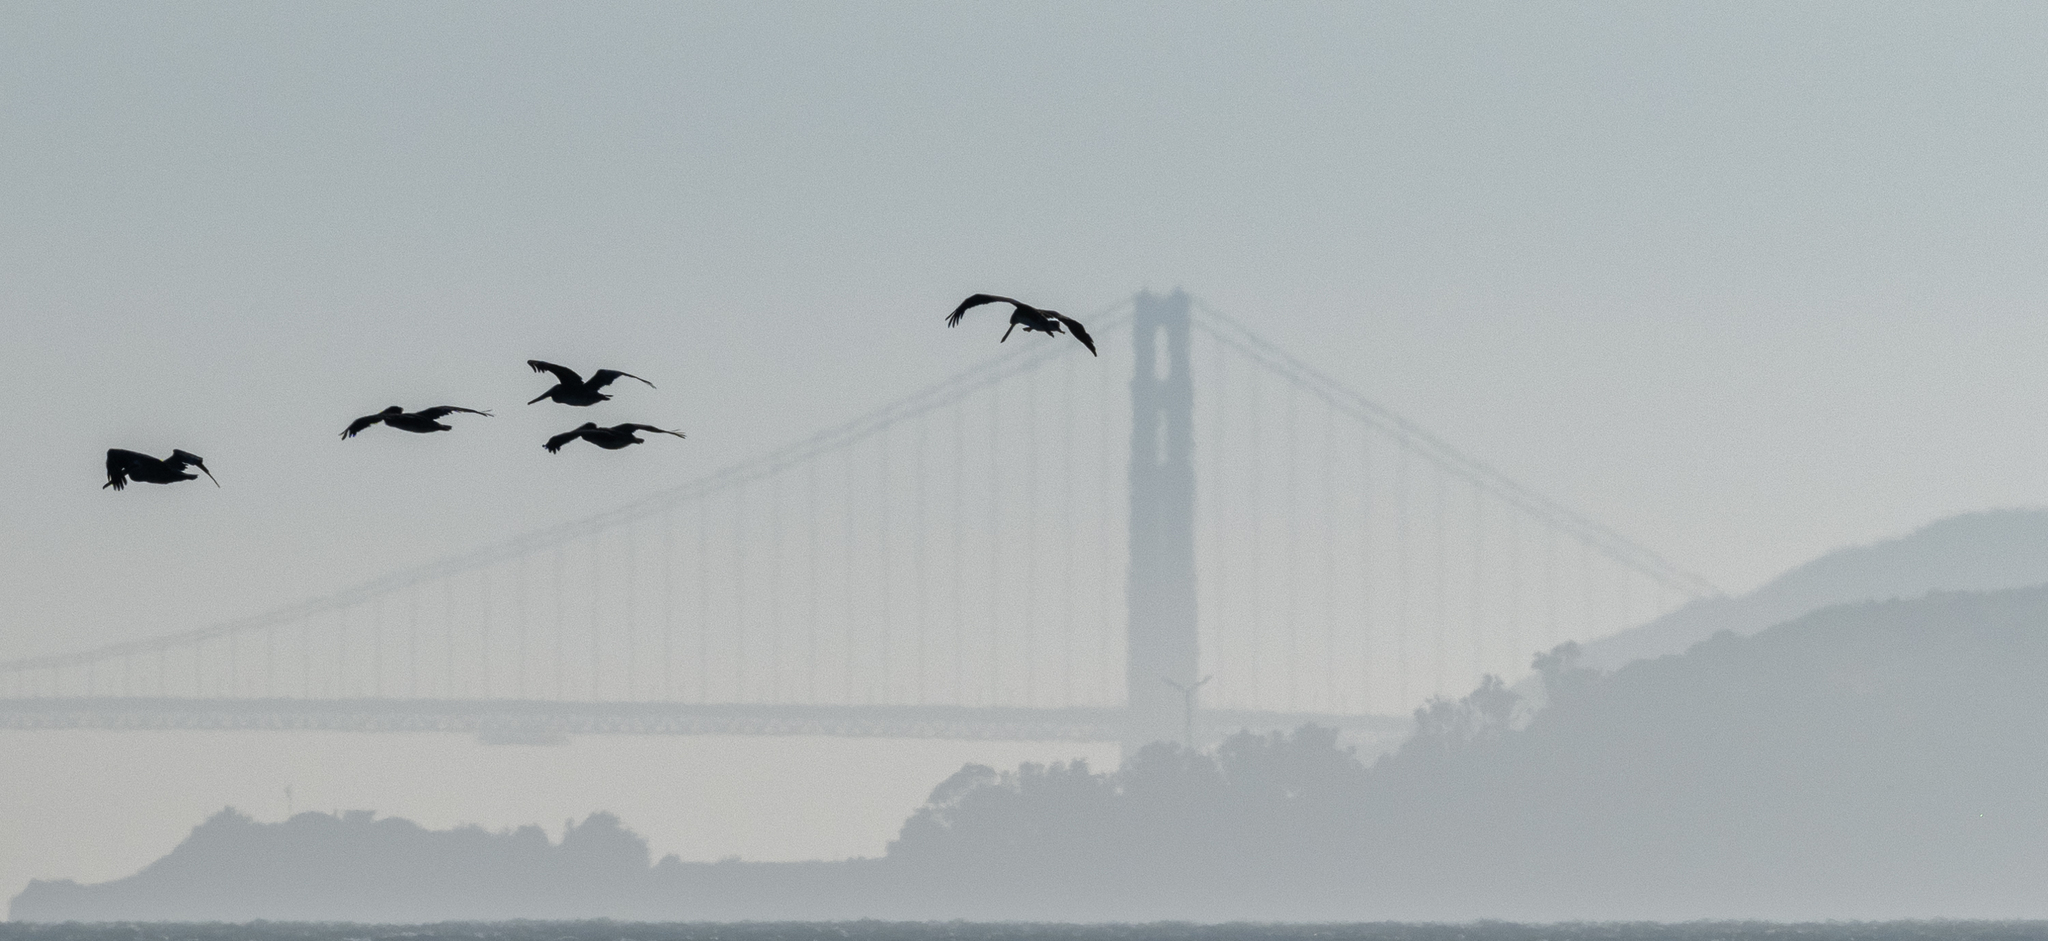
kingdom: Animalia
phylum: Chordata
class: Aves
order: Pelecaniformes
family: Pelecanidae
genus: Pelecanus
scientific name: Pelecanus occidentalis
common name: Brown pelican
